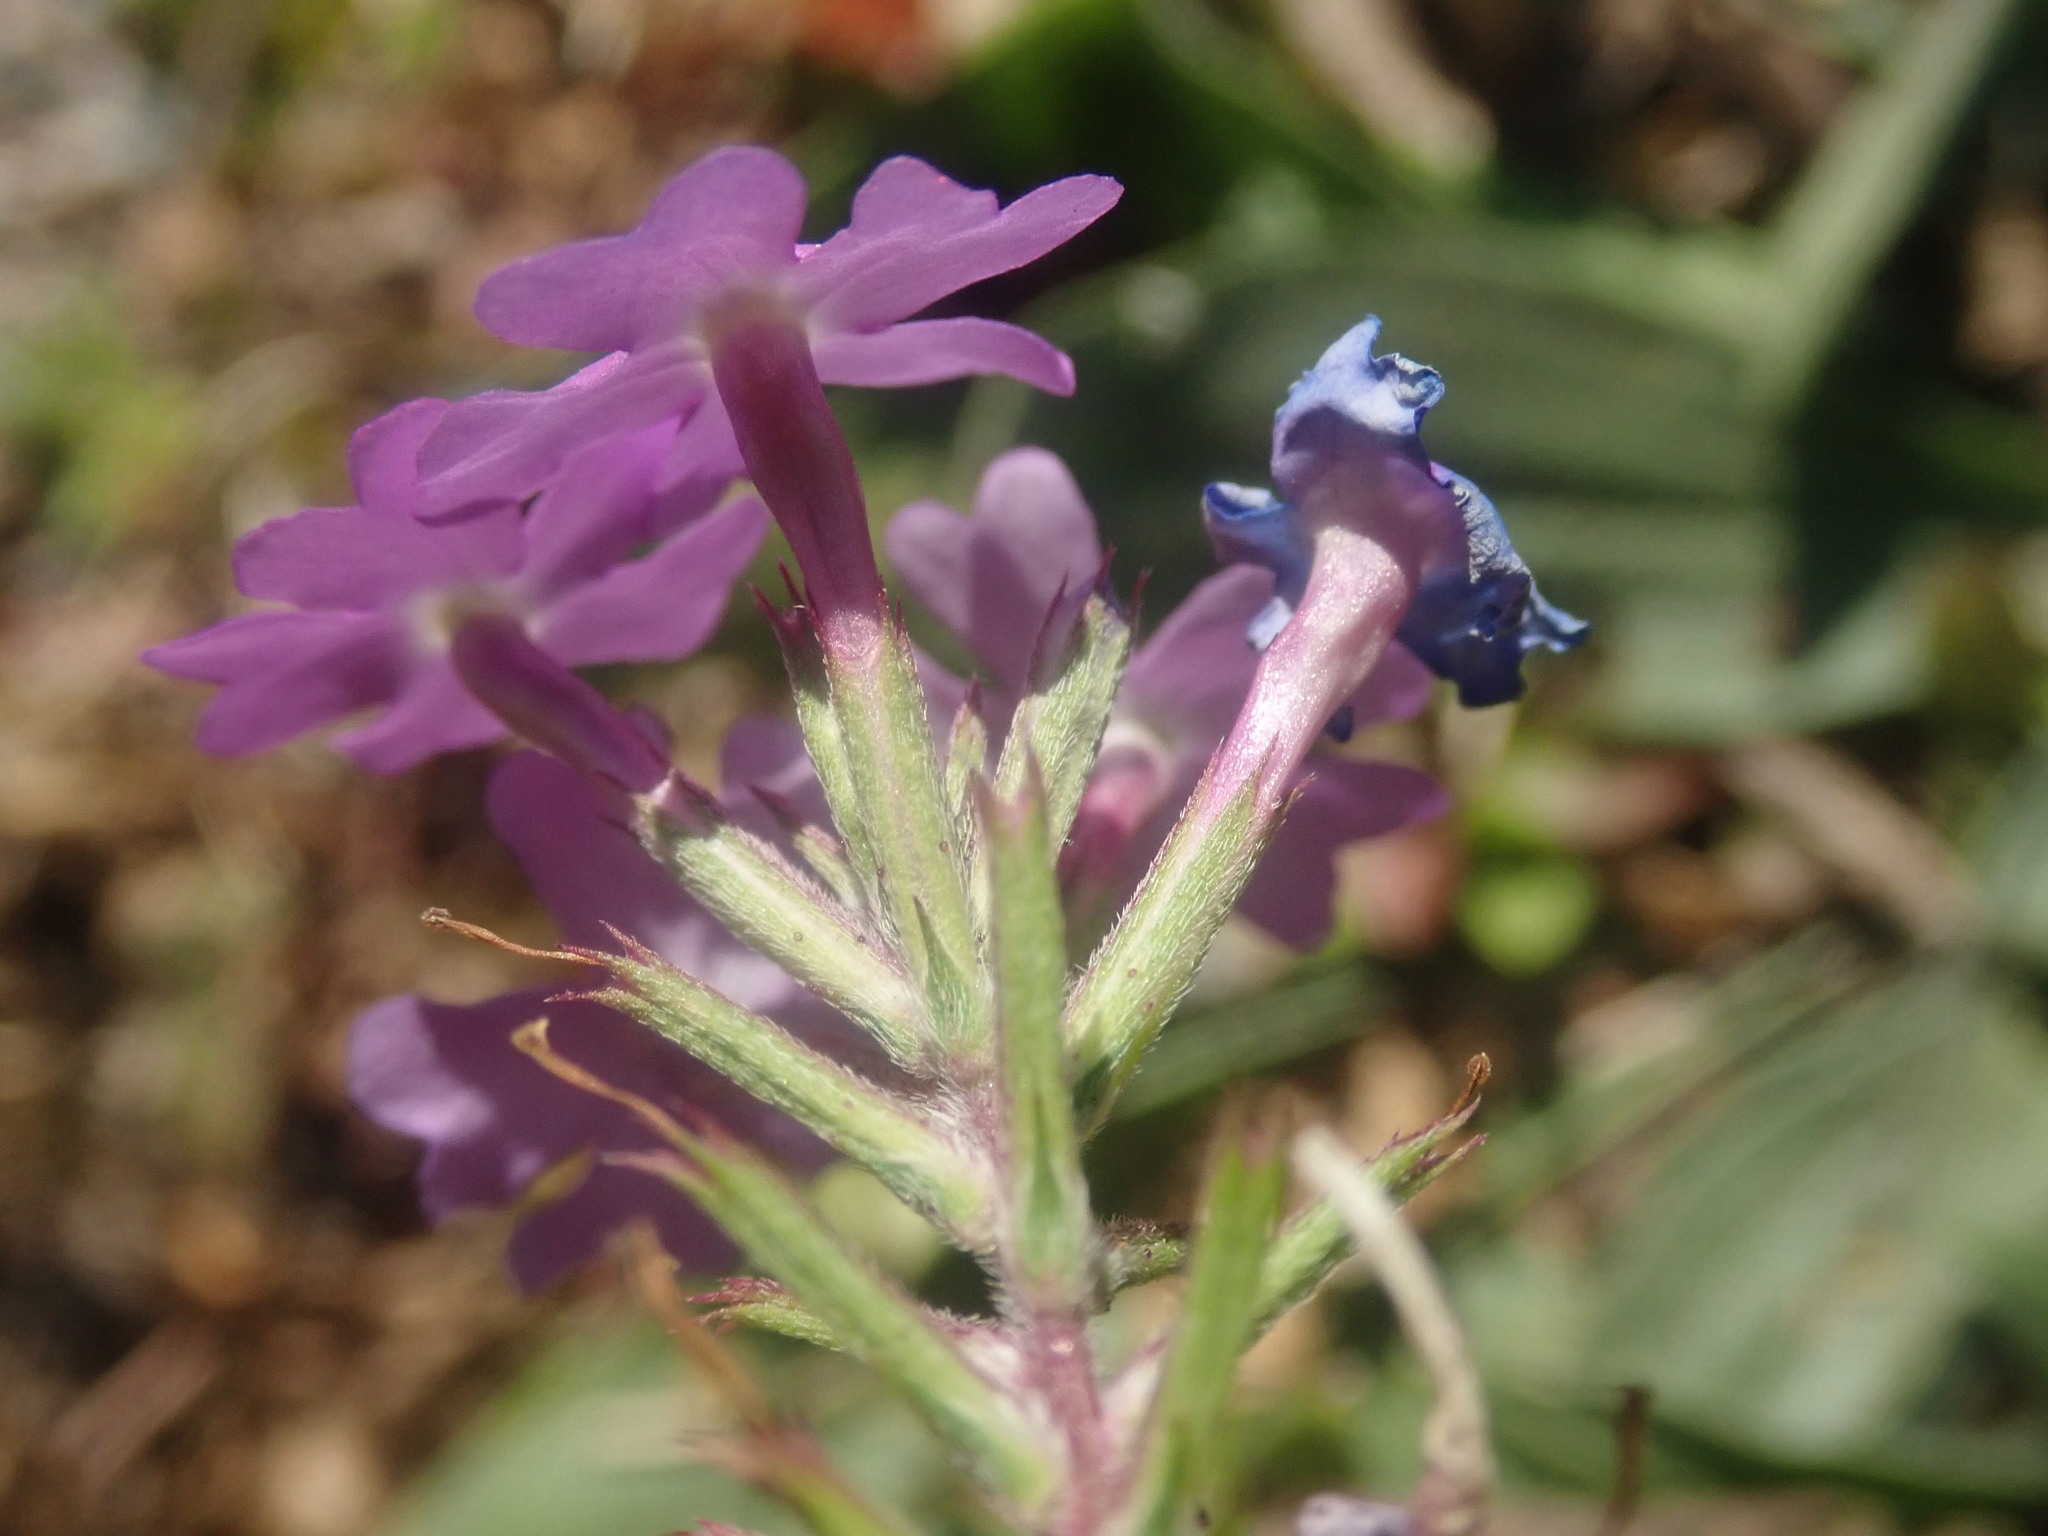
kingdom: Plantae
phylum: Tracheophyta
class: Magnoliopsida
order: Lamiales
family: Verbenaceae
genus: Verbena
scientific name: Verbena aristigera
